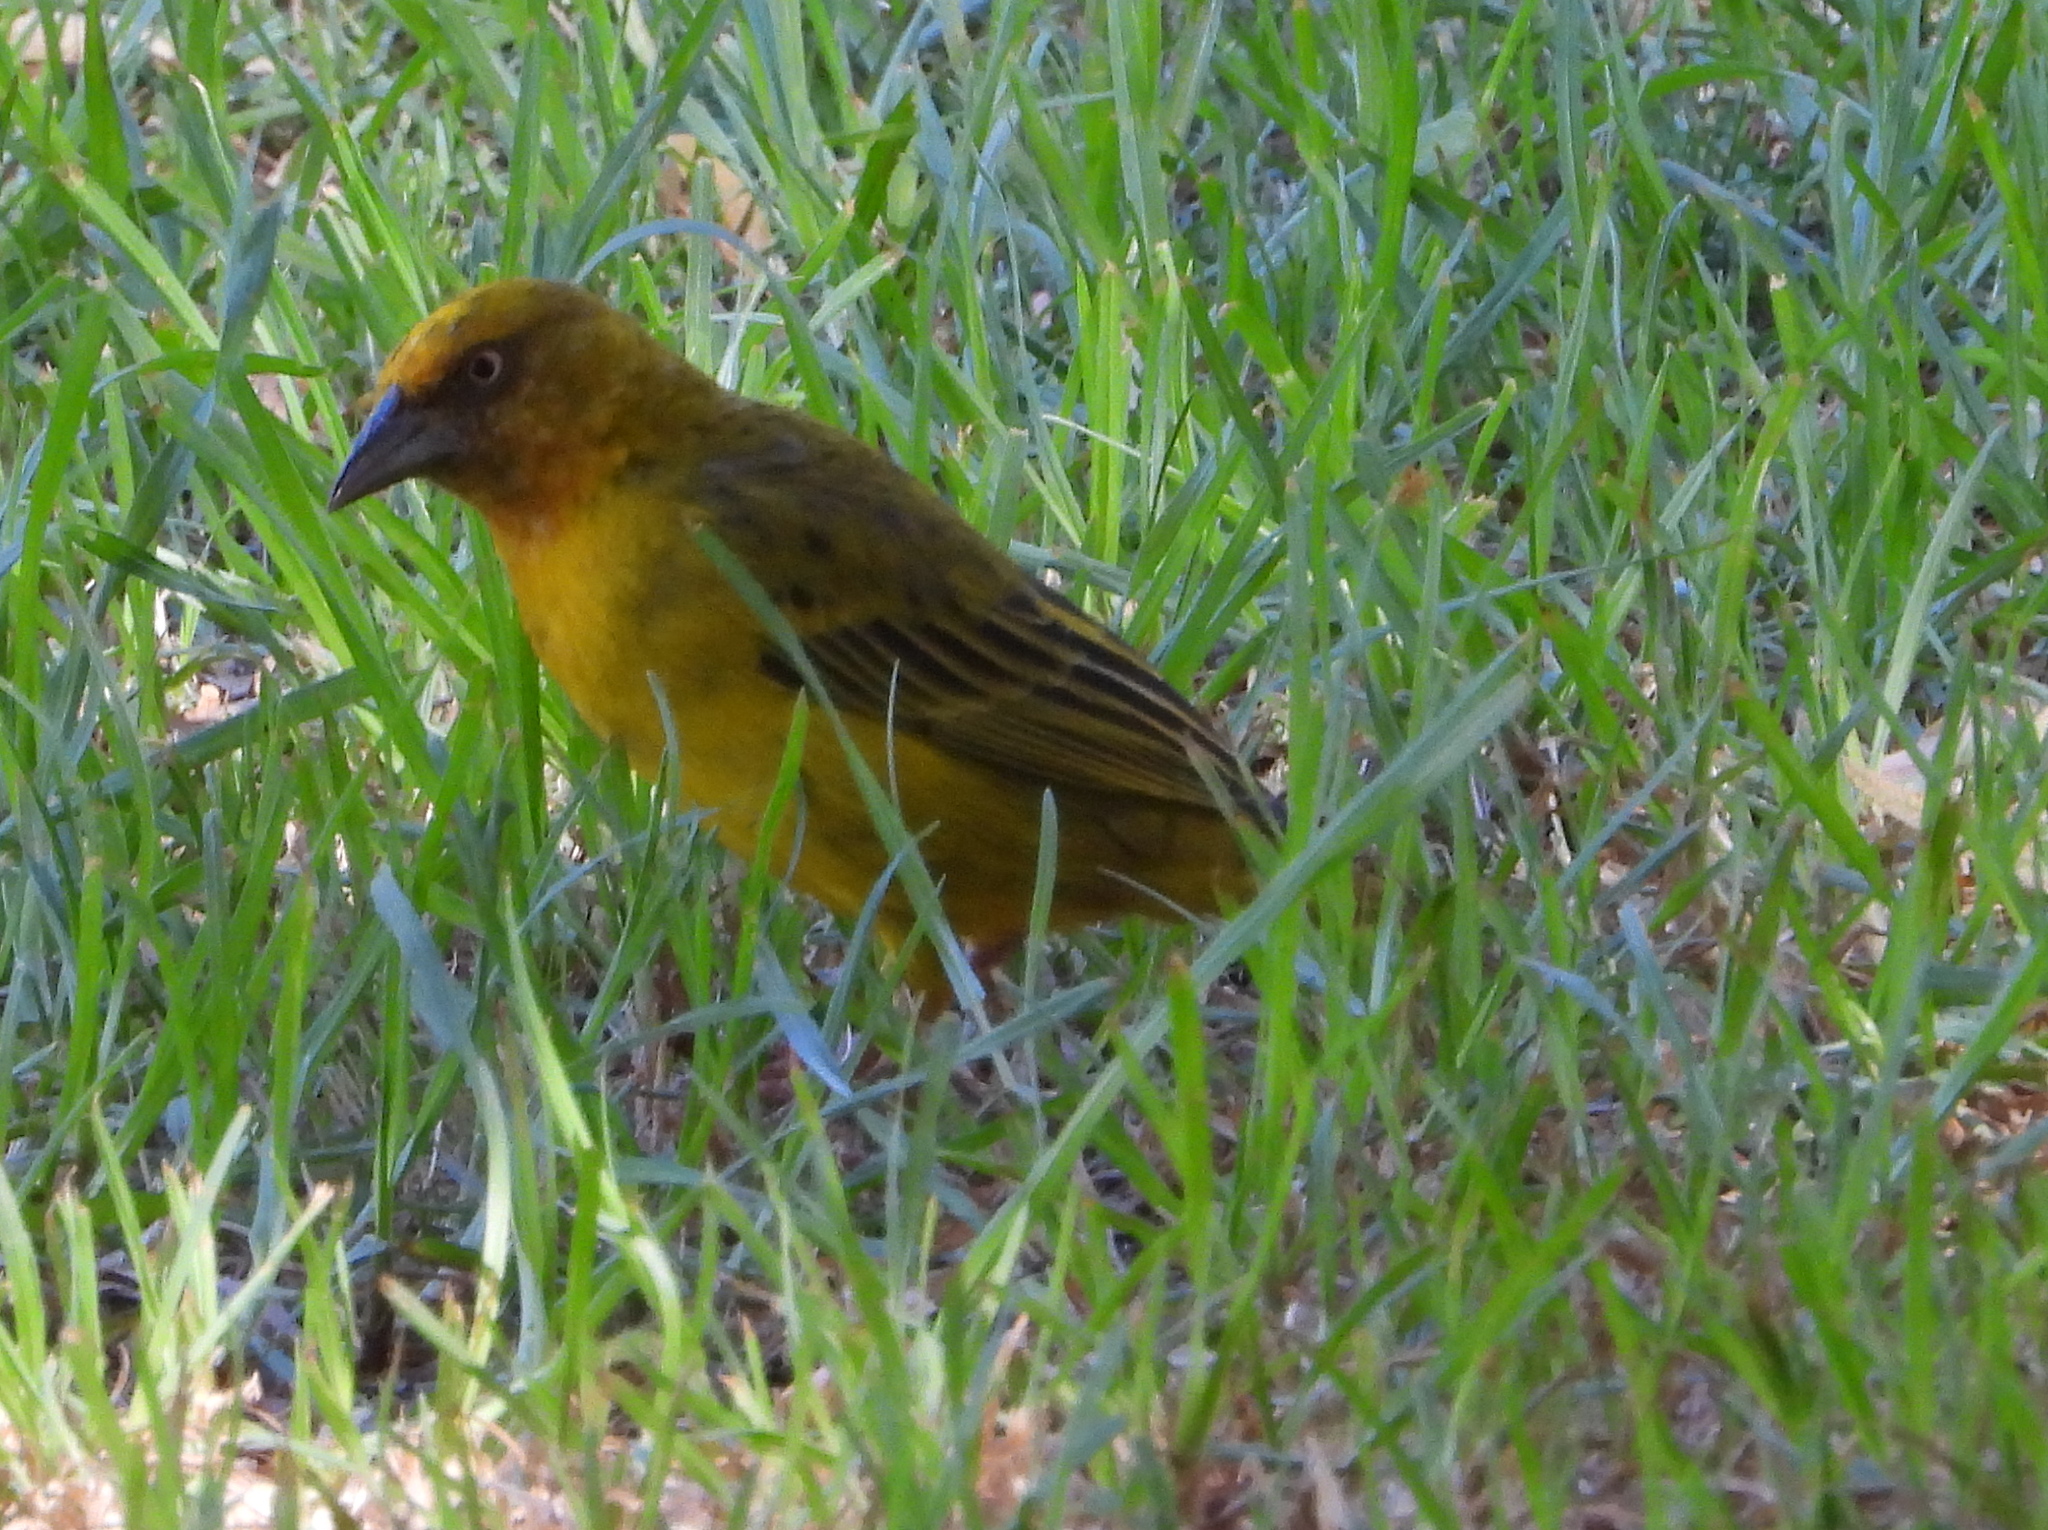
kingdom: Animalia
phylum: Chordata
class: Aves
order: Passeriformes
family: Ploceidae
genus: Ploceus
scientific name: Ploceus capensis
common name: Cape weaver
